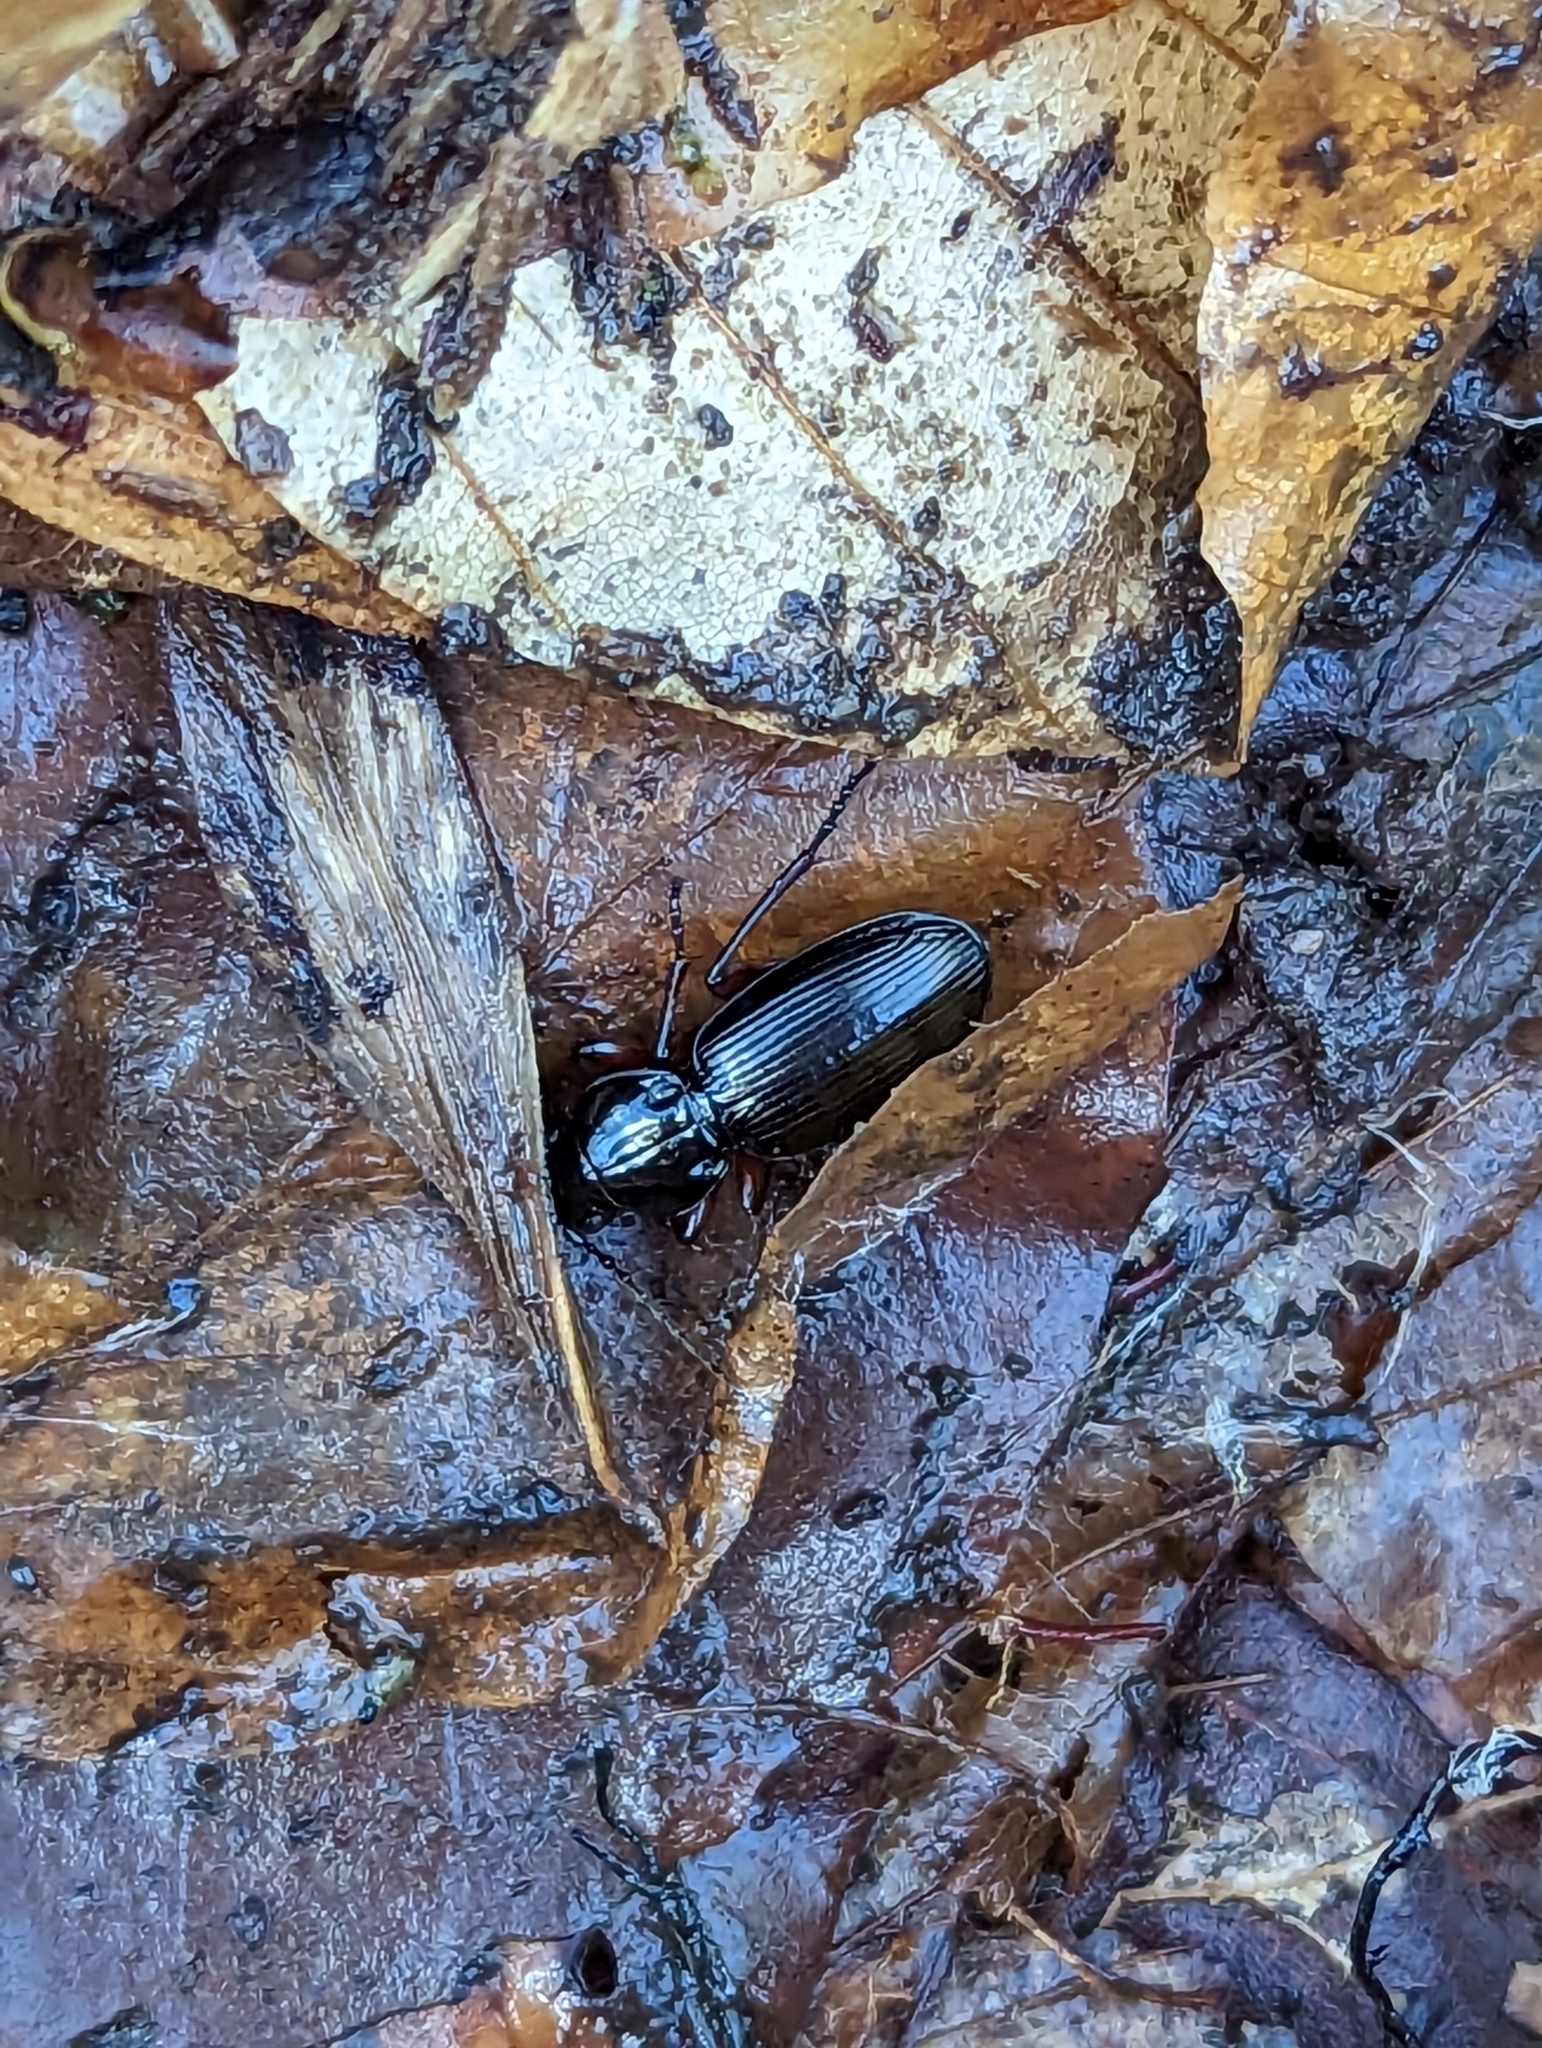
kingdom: Animalia
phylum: Arthropoda
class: Insecta
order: Coleoptera
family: Carabidae
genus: Pterostichus
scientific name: Pterostichus madidus
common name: Black clock
